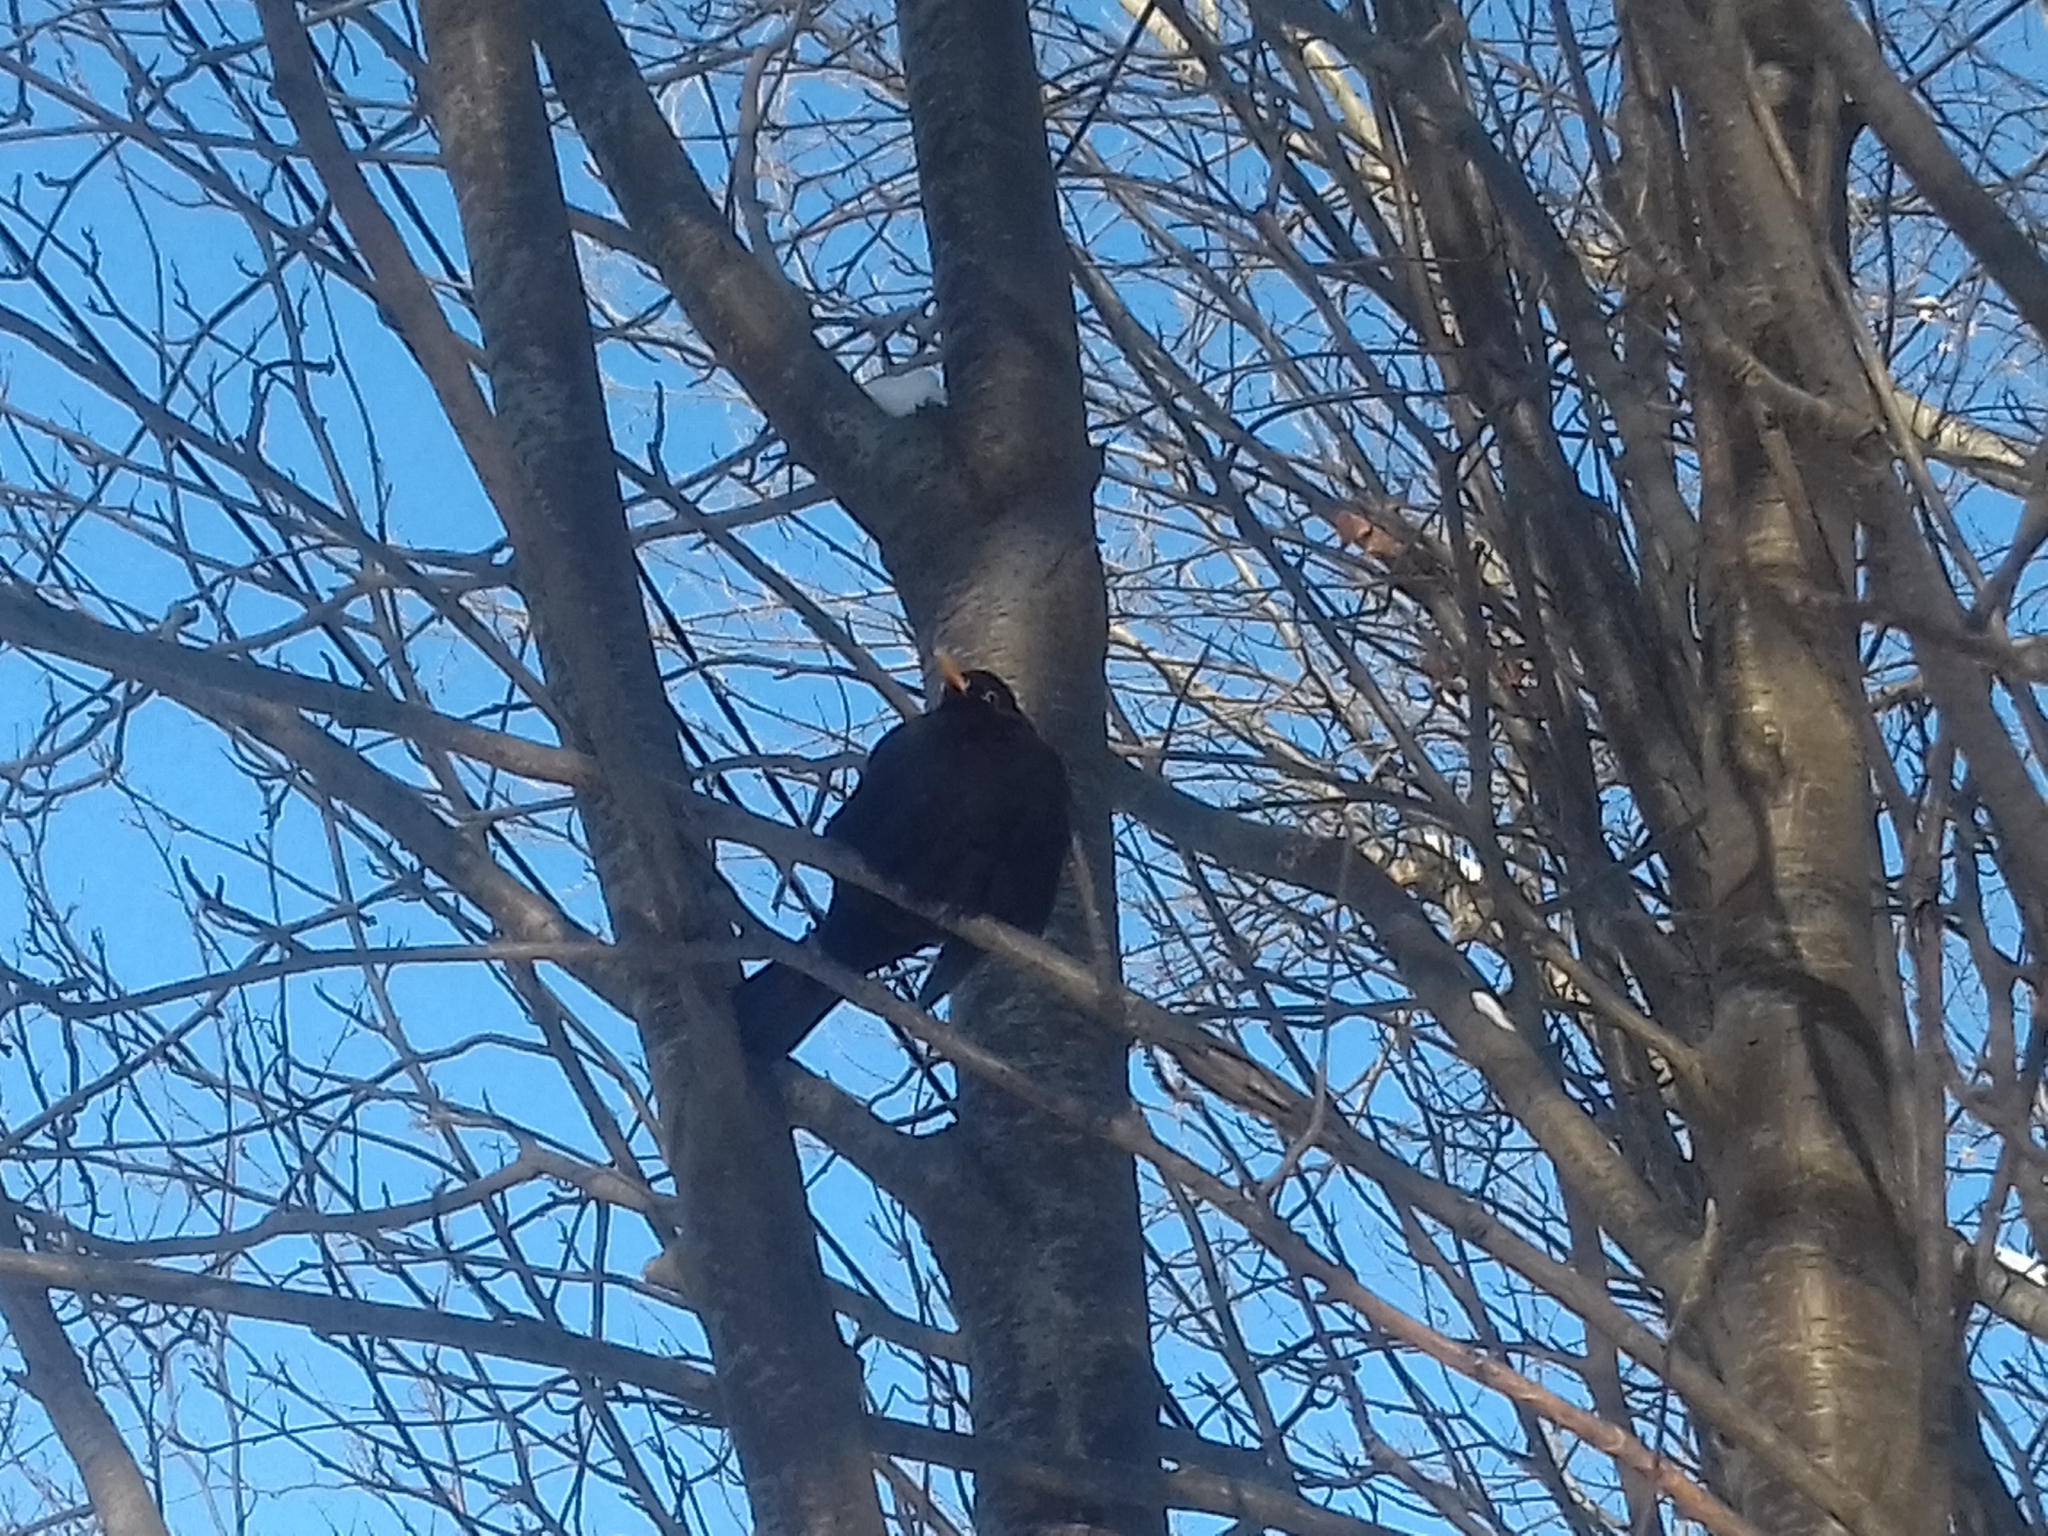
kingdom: Animalia
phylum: Chordata
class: Aves
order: Passeriformes
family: Turdidae
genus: Turdus
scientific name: Turdus merula
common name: Common blackbird
